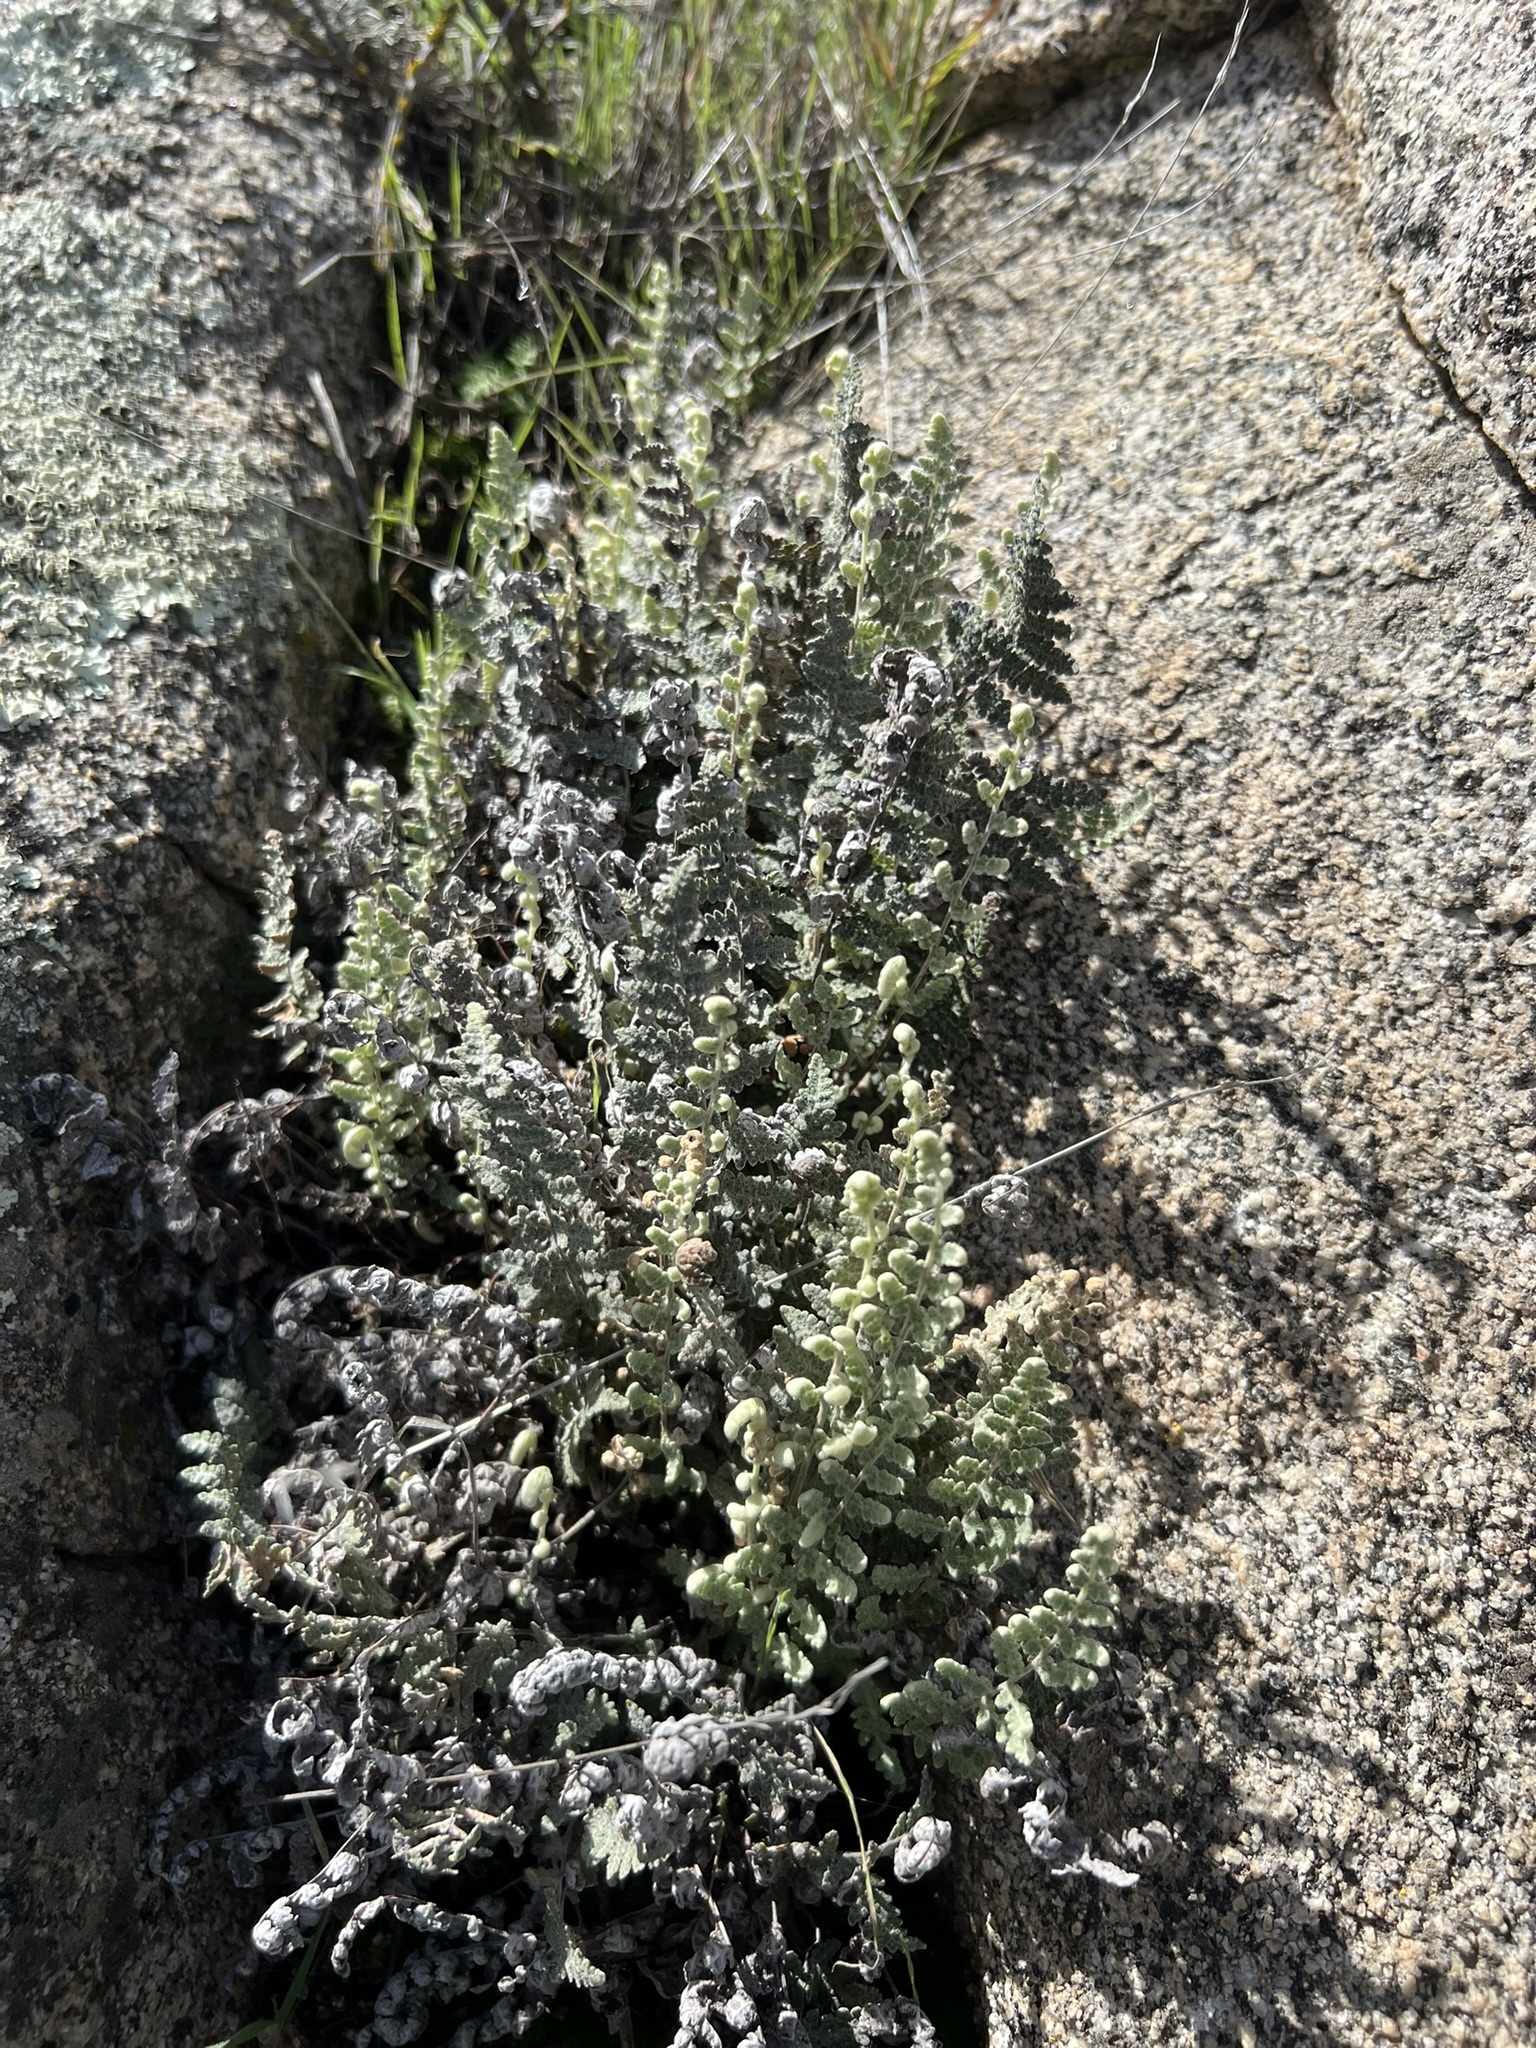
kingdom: Plantae
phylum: Tracheophyta
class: Polypodiopsida
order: Polypodiales
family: Pteridaceae
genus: Myriopteris
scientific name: Myriopteris newberryi
